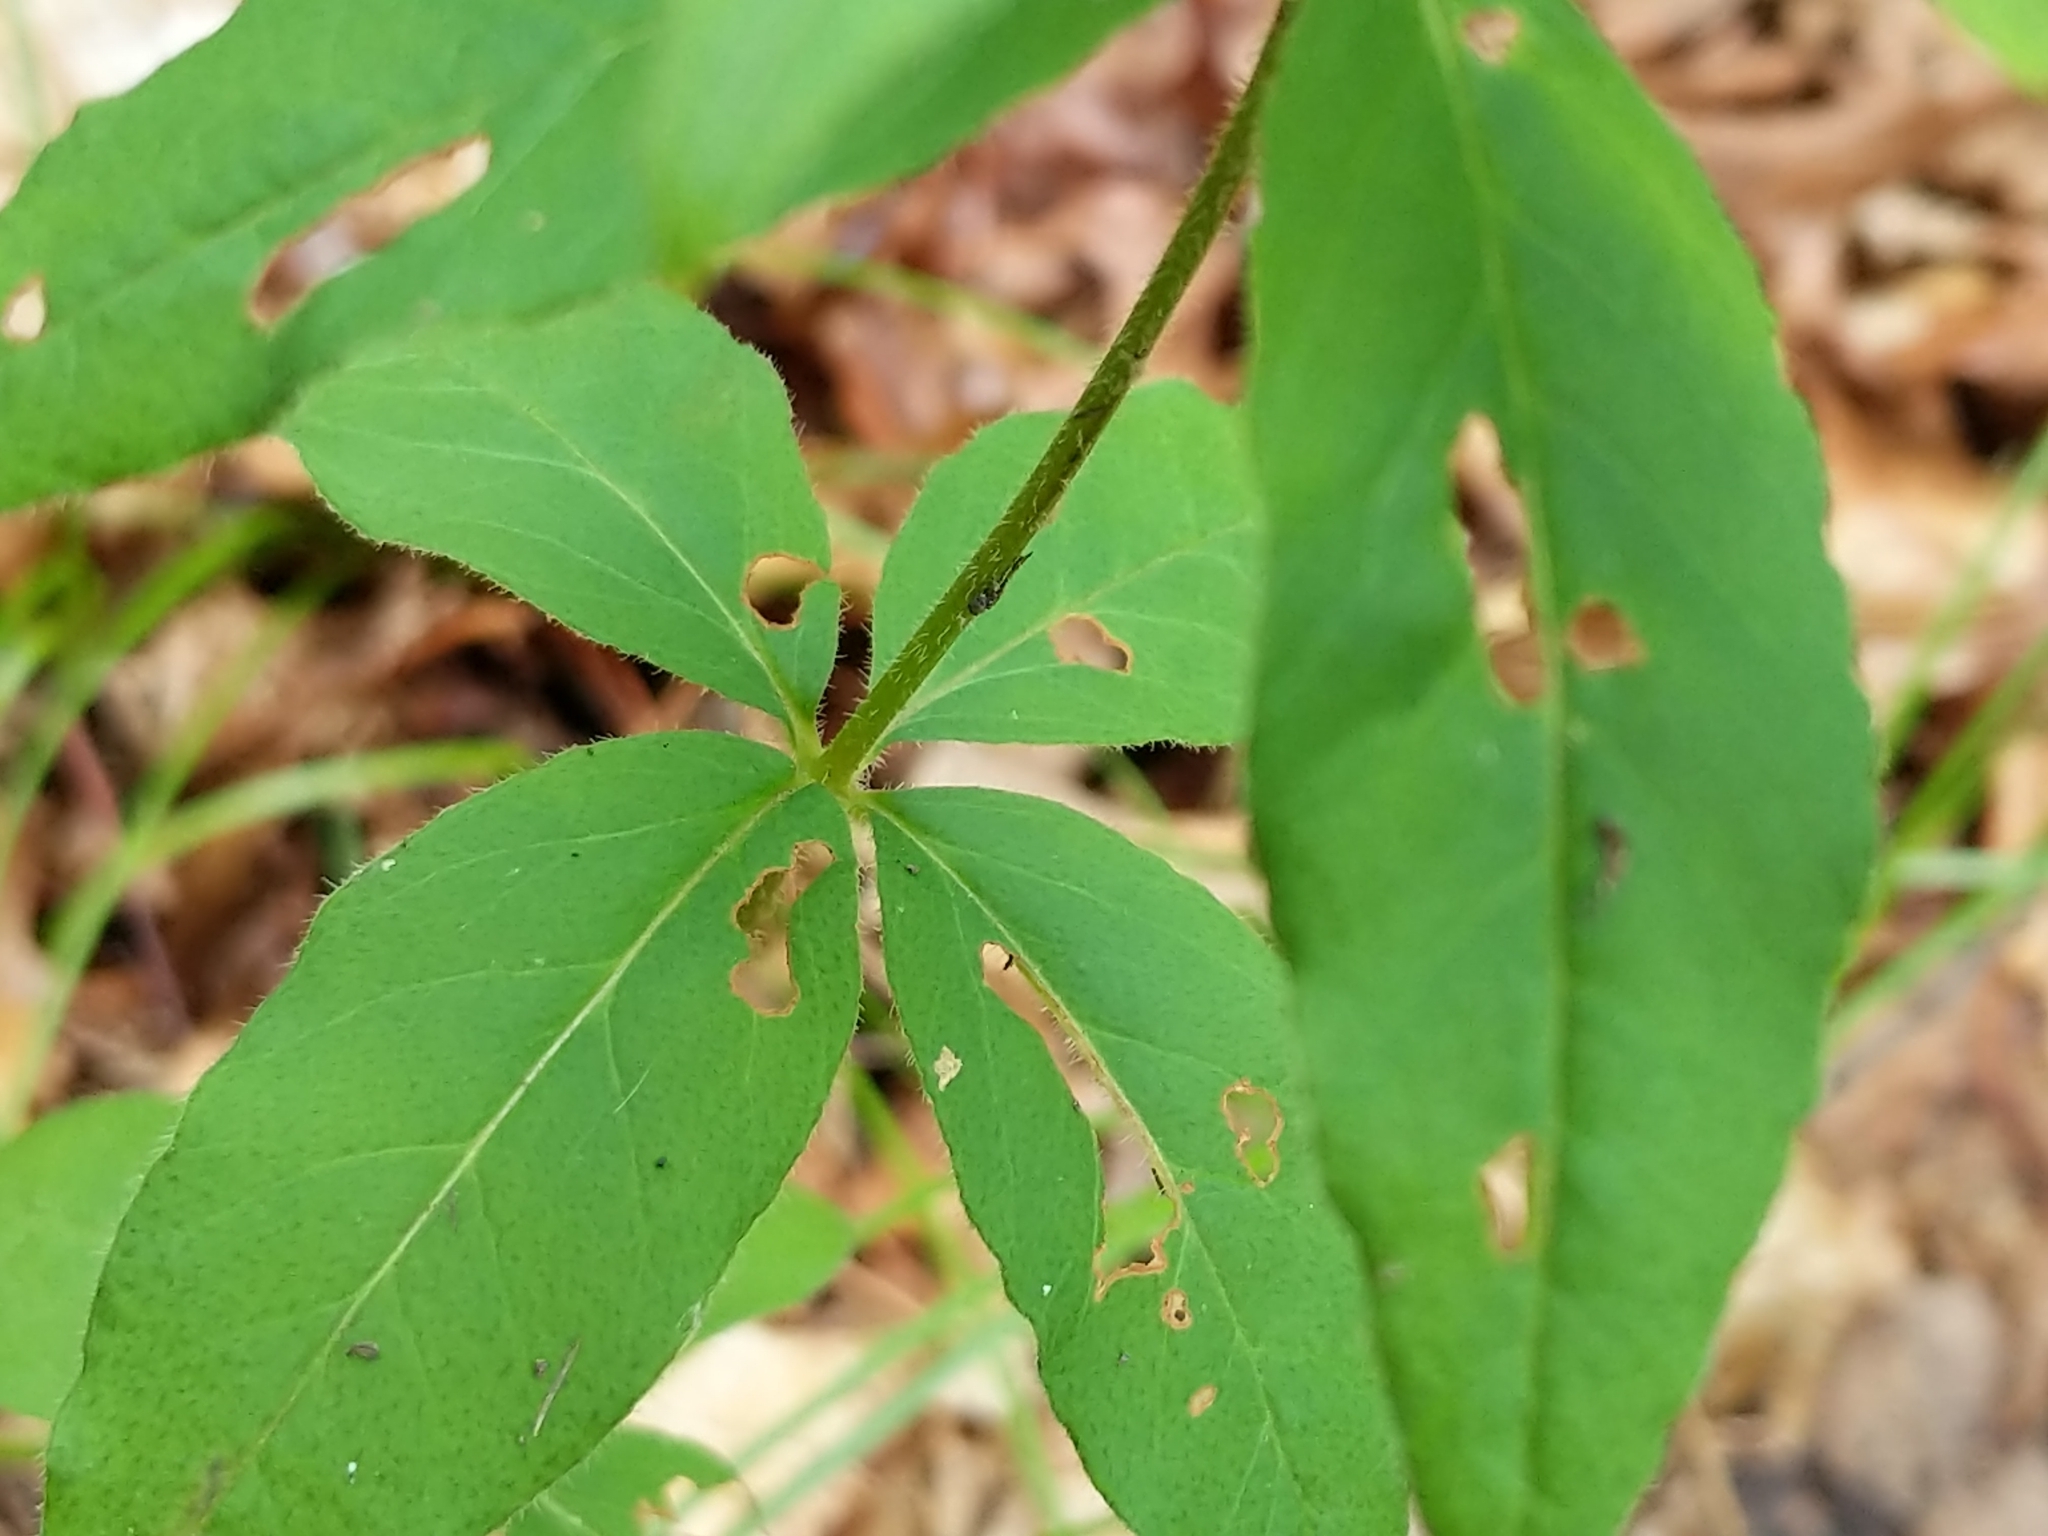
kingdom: Plantae
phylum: Tracheophyta
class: Magnoliopsida
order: Ericales
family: Primulaceae
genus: Lysimachia
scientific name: Lysimachia quadrifolia
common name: Whorled loosestrife
